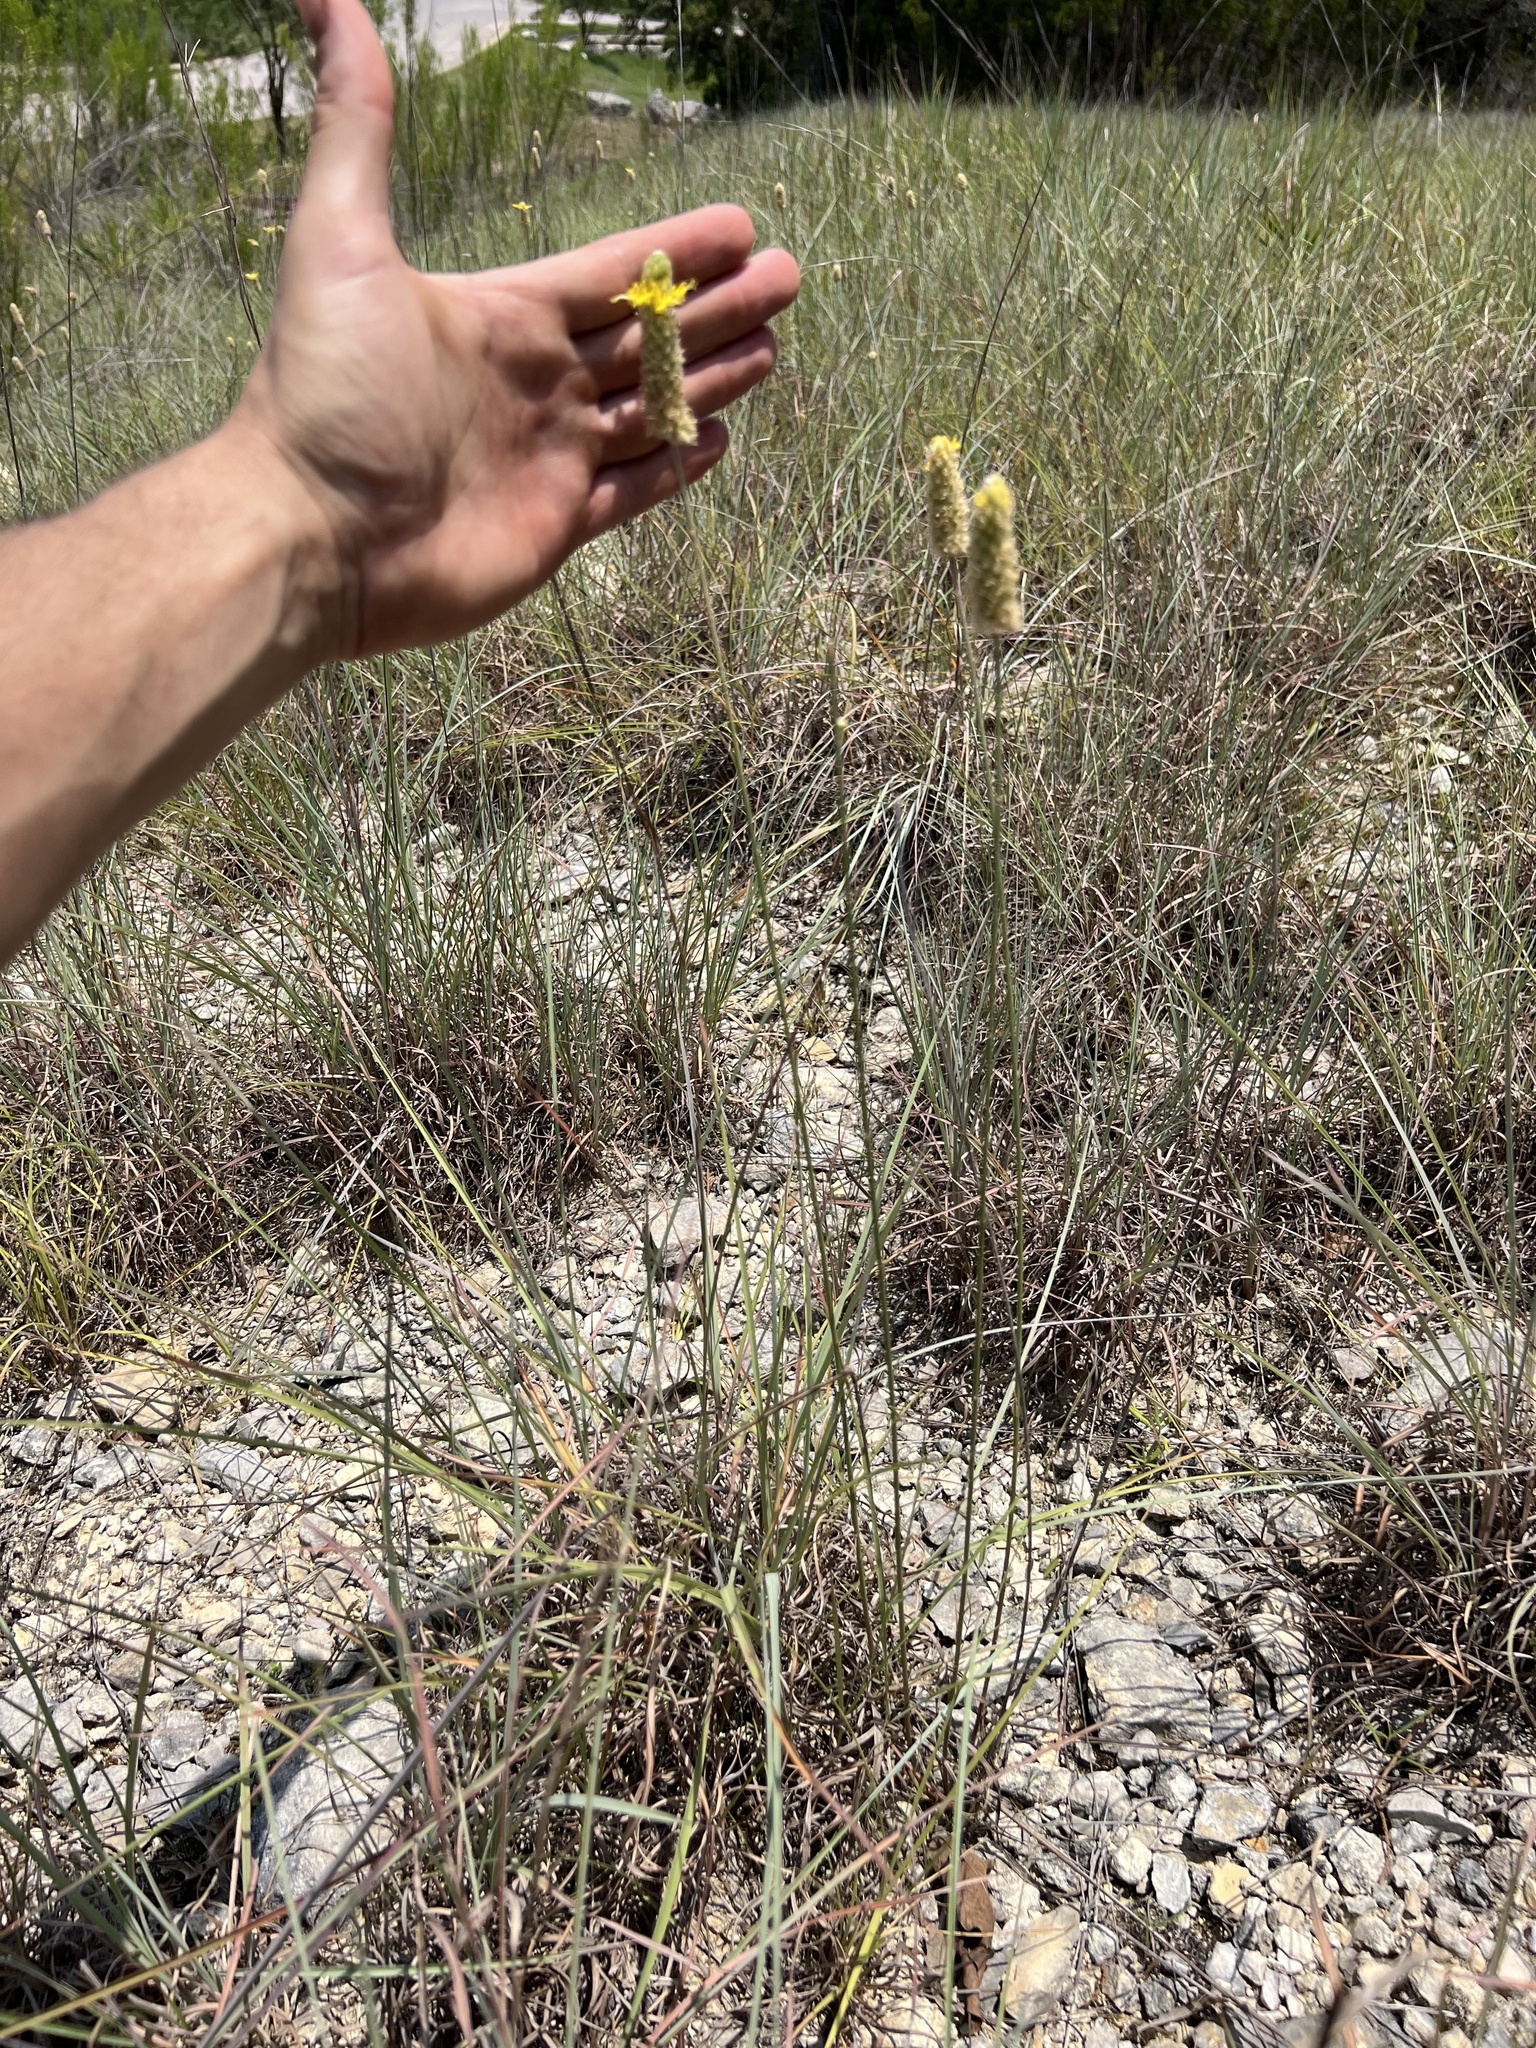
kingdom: Plantae
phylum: Tracheophyta
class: Magnoliopsida
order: Fabales
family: Fabaceae
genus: Dalea
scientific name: Dalea aurea
